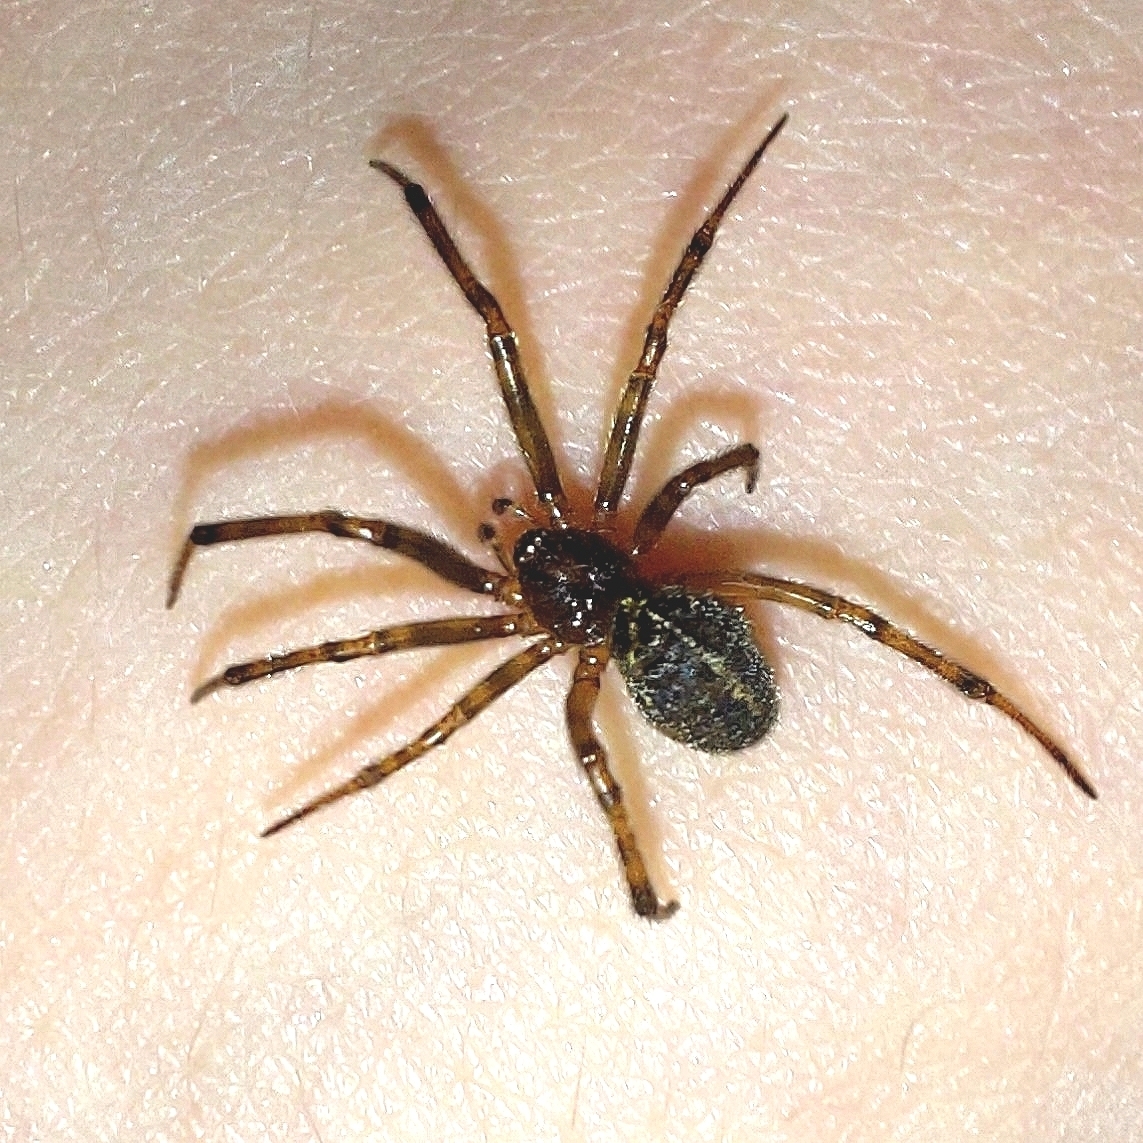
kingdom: Animalia
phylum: Arthropoda
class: Arachnida
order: Araneae
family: Theridiidae
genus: Steatoda
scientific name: Steatoda castanea
